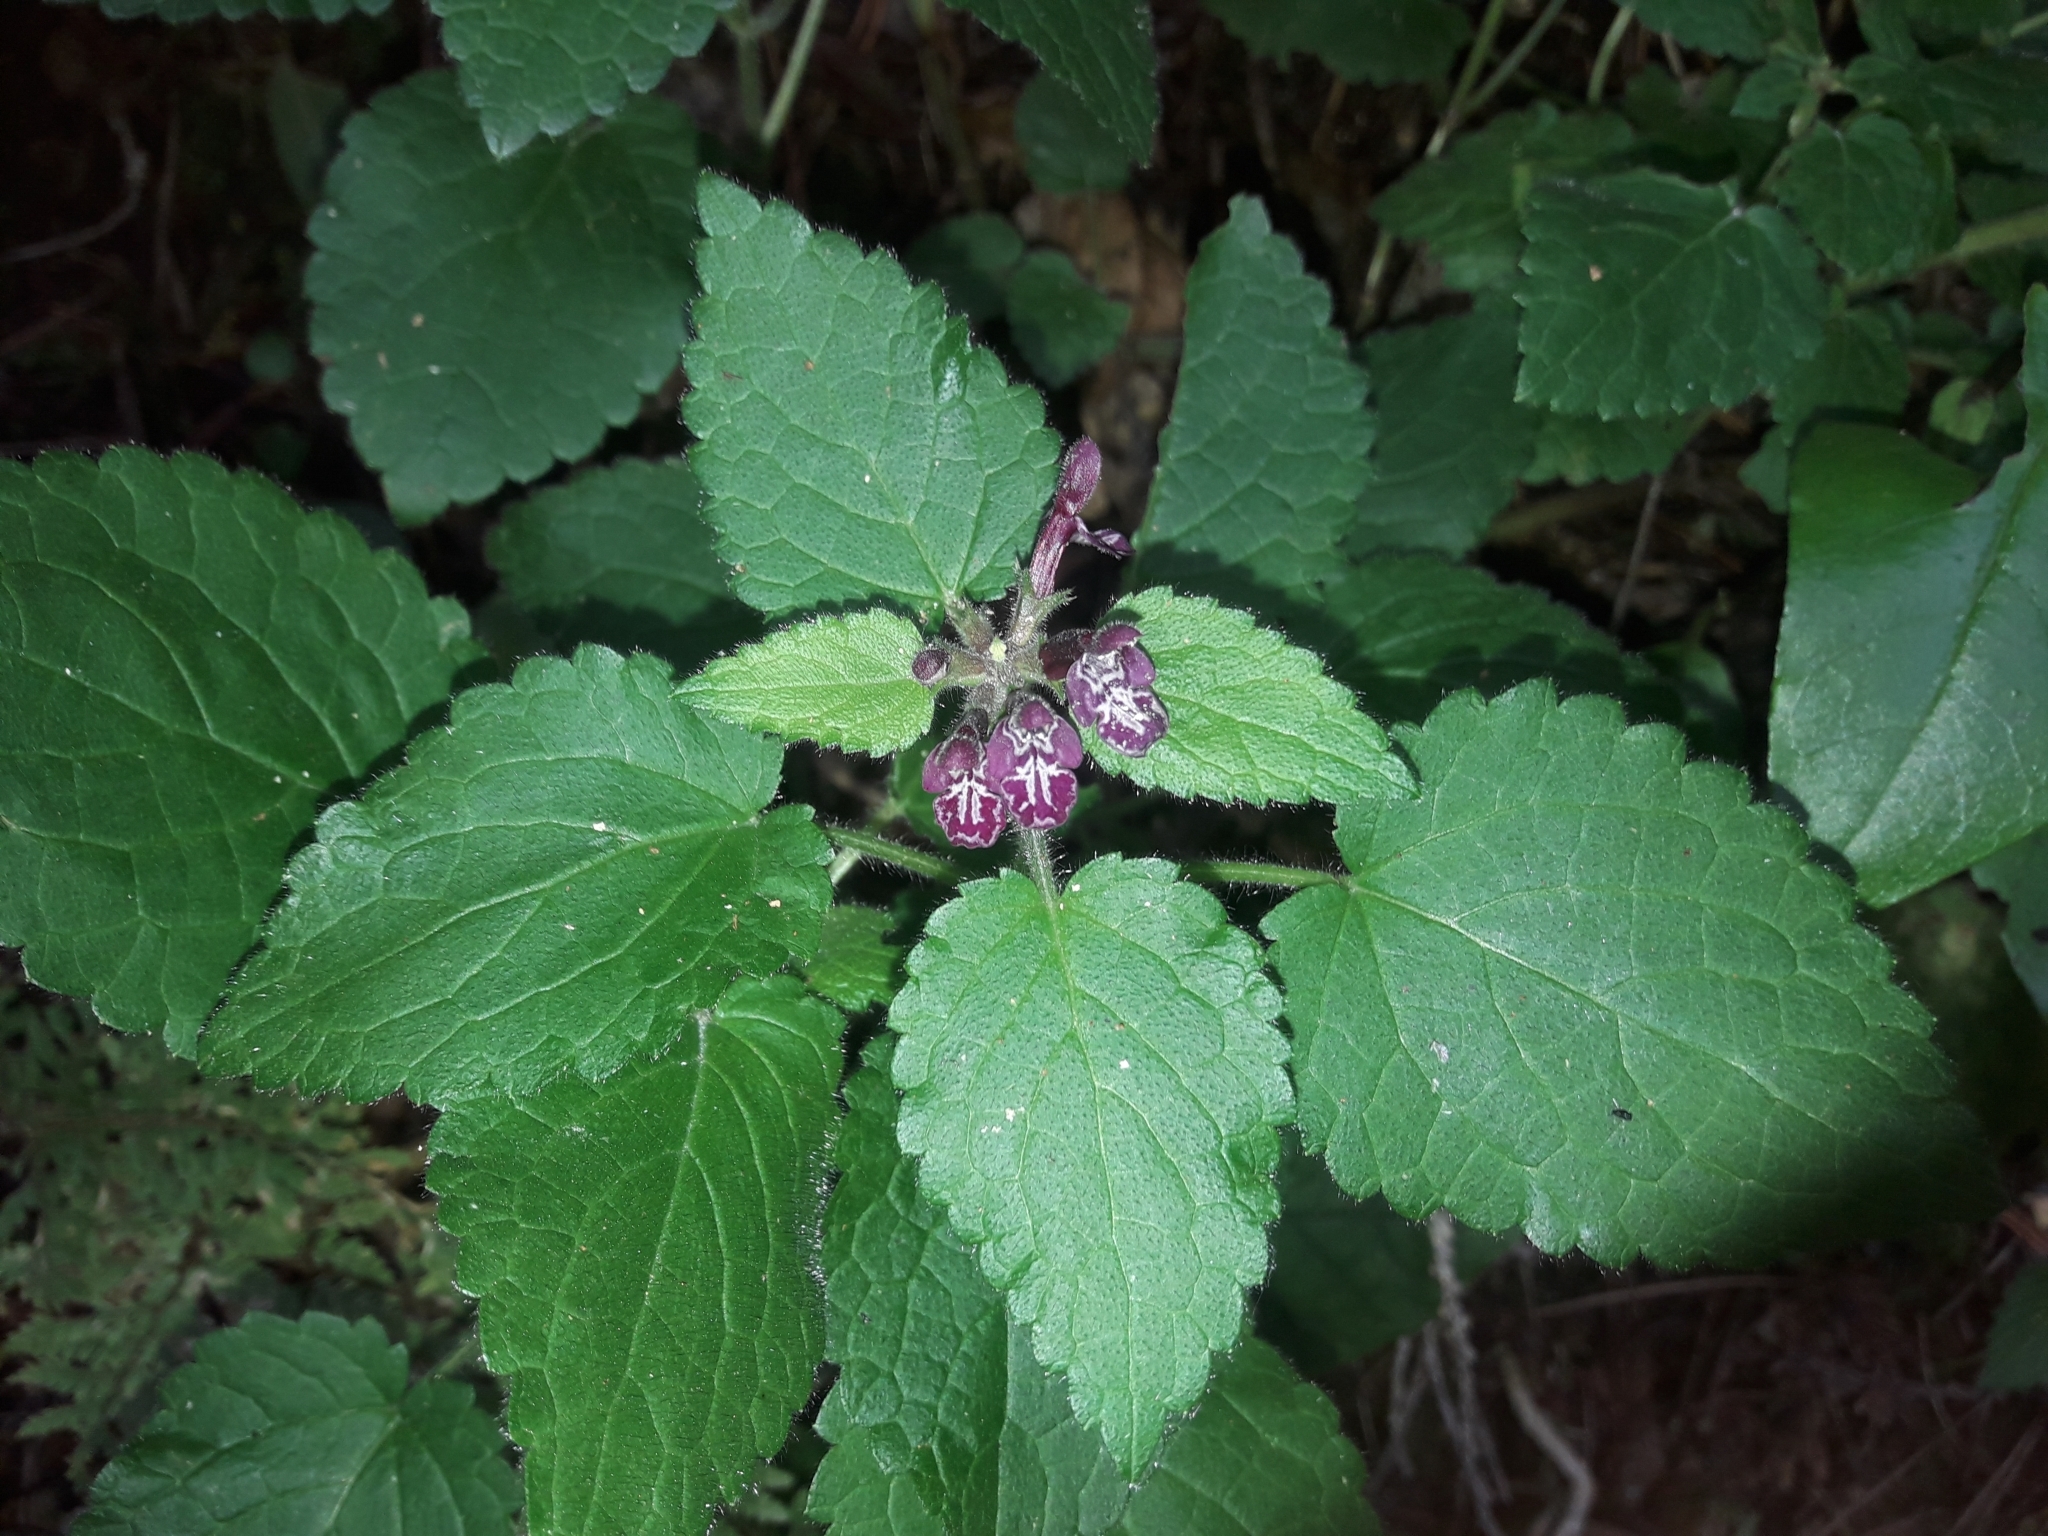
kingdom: Plantae
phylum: Tracheophyta
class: Magnoliopsida
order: Lamiales
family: Lamiaceae
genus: Stachys
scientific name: Stachys sylvatica
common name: Hedge woundwort
